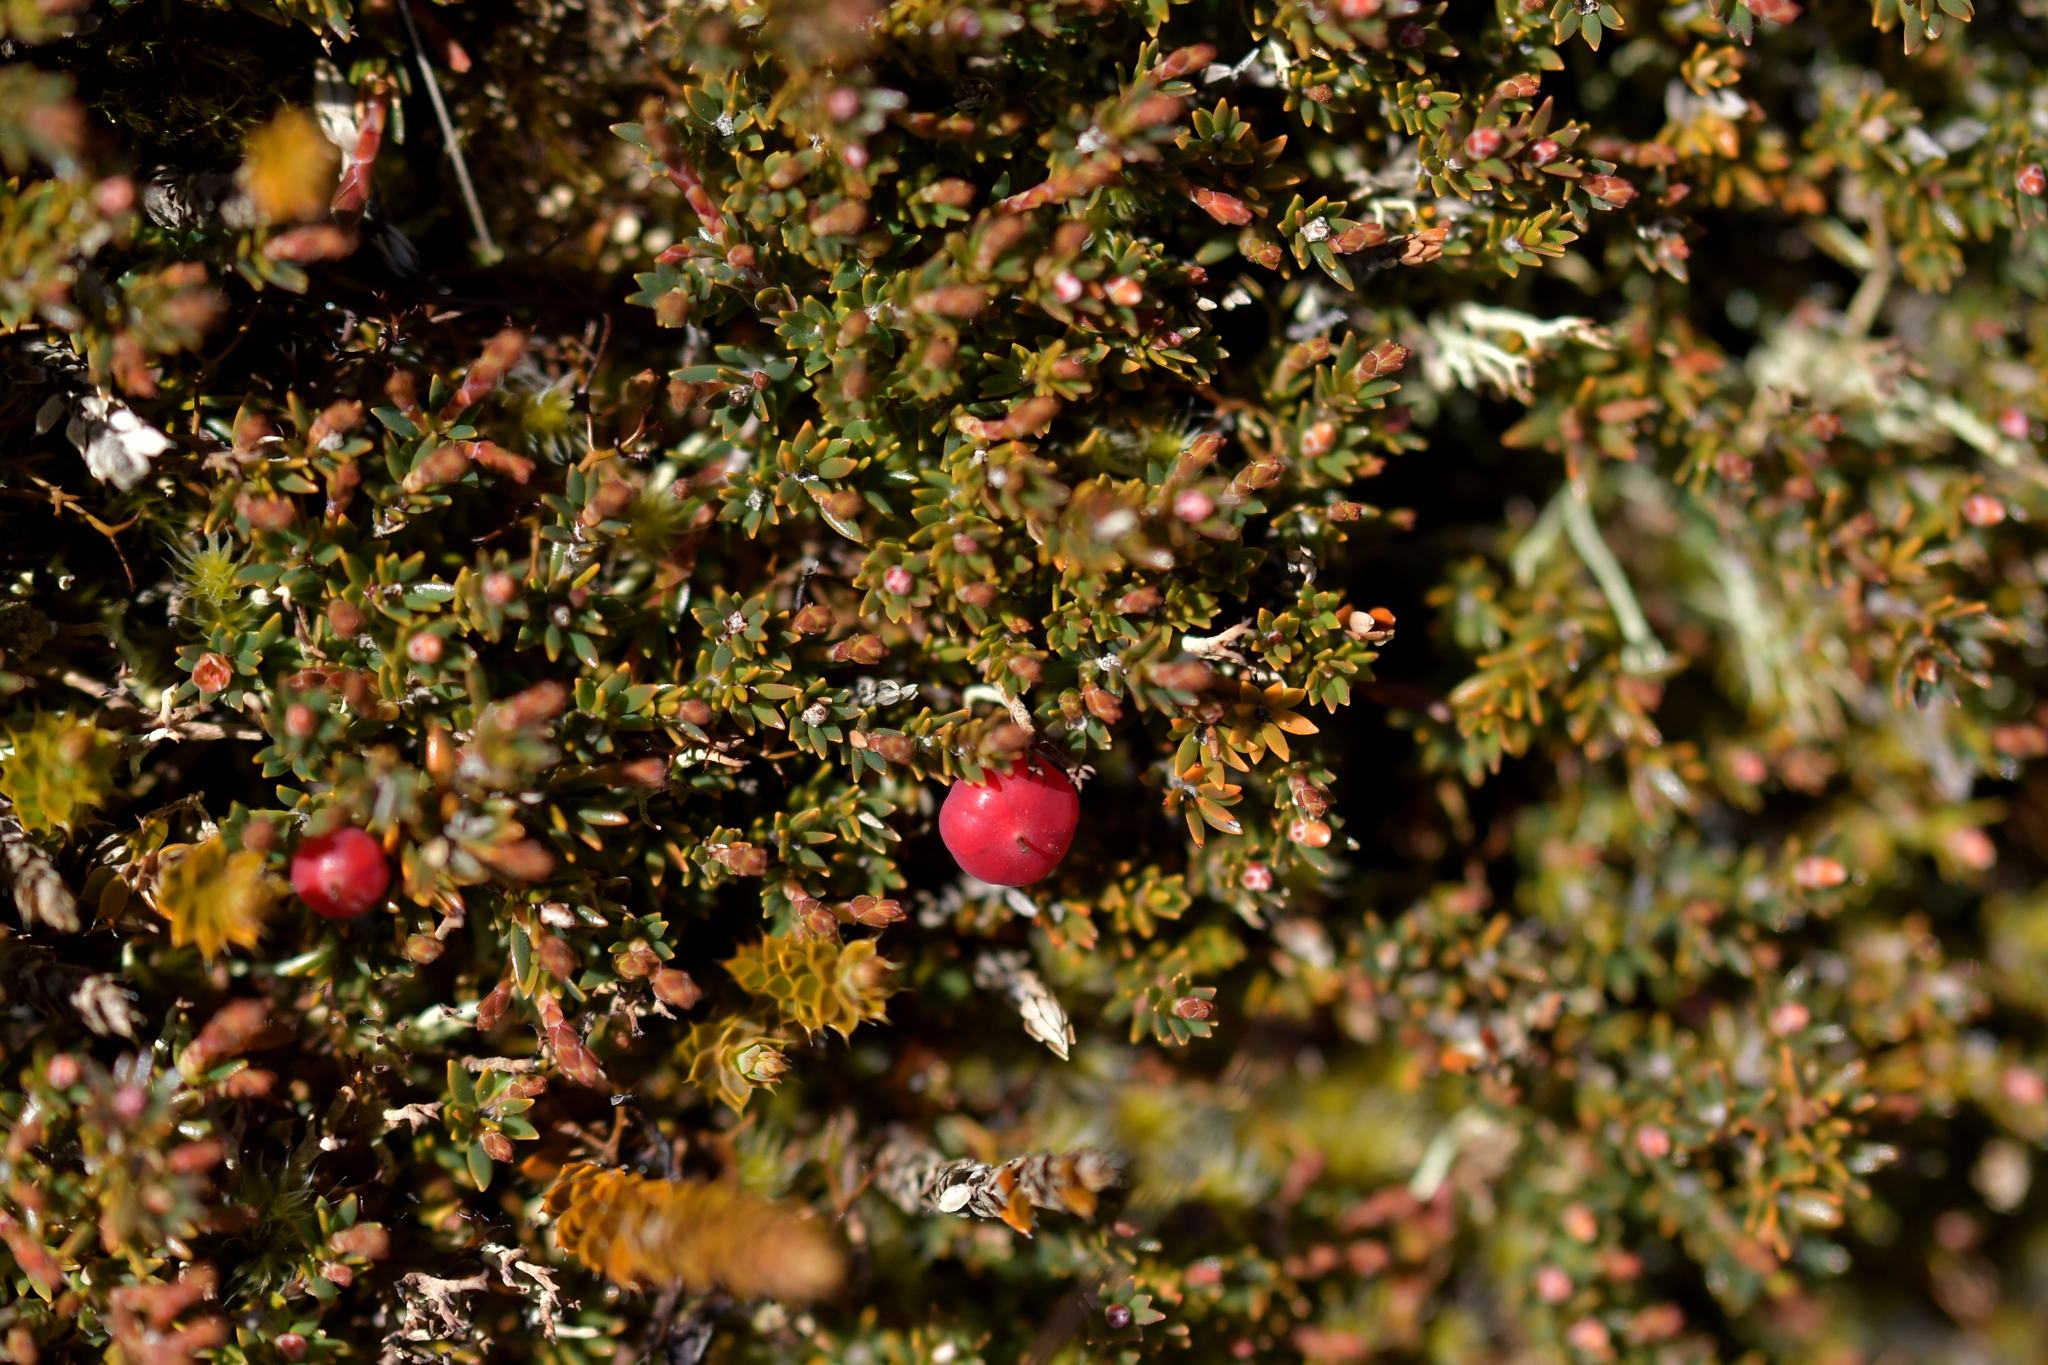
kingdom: Plantae
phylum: Tracheophyta
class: Magnoliopsida
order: Ericales
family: Ericaceae
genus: Pentachondra
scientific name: Pentachondra pumila
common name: Carpet-heath
